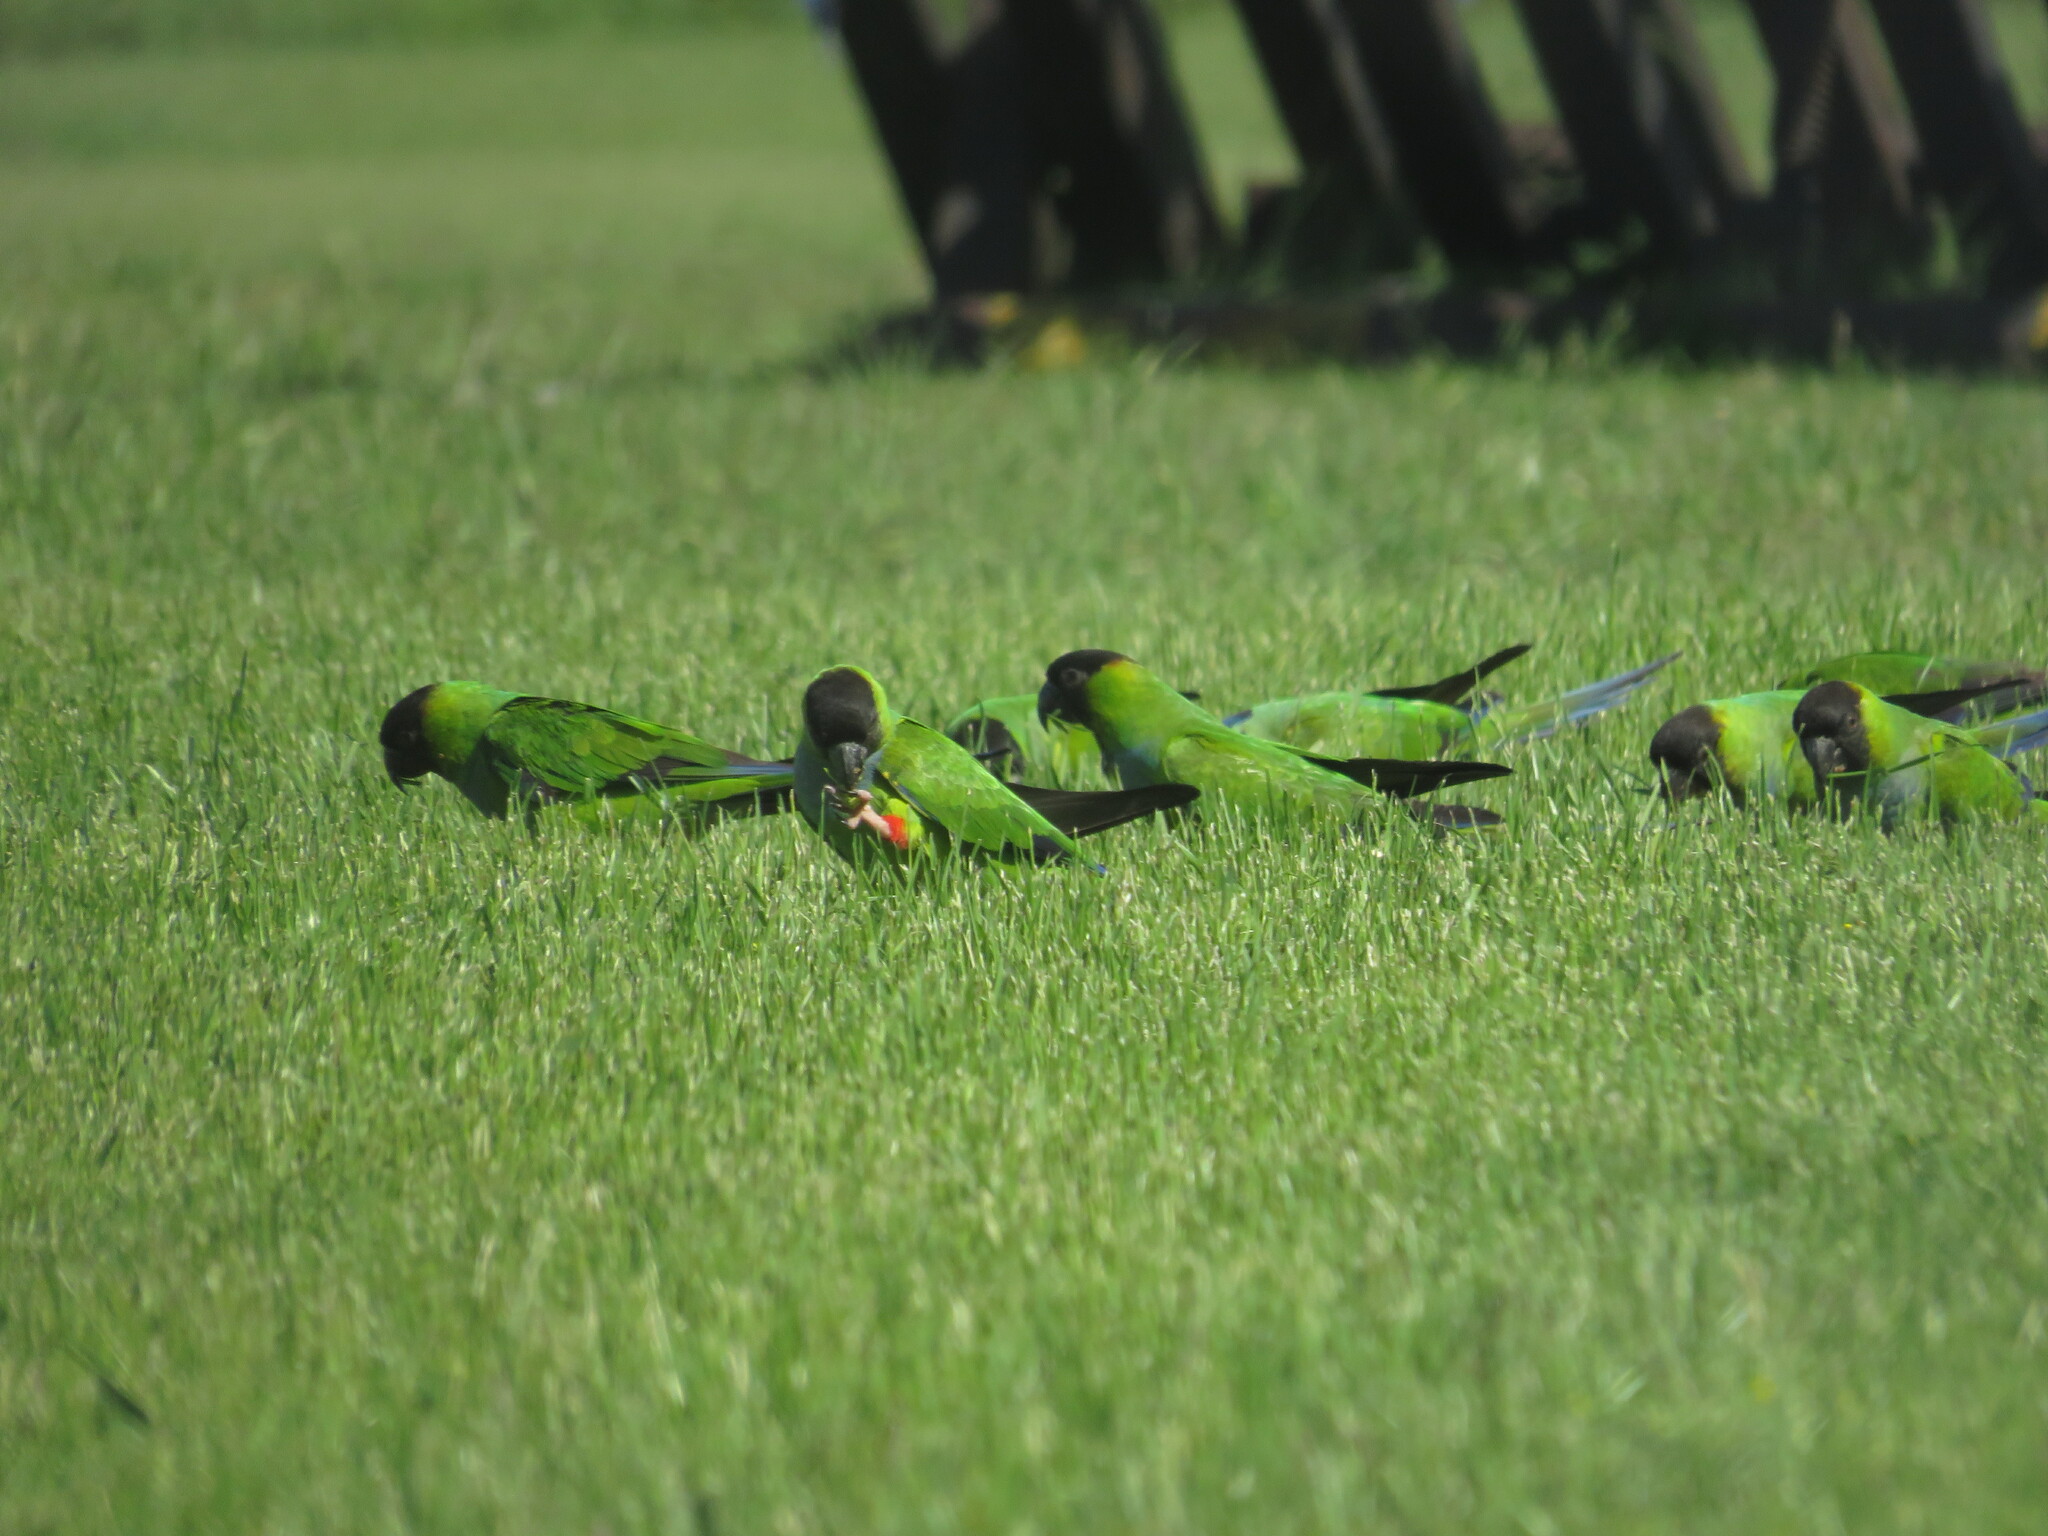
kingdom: Animalia
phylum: Chordata
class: Aves
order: Psittaciformes
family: Psittacidae
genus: Nandayus
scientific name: Nandayus nenday
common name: Nanday parakeet
